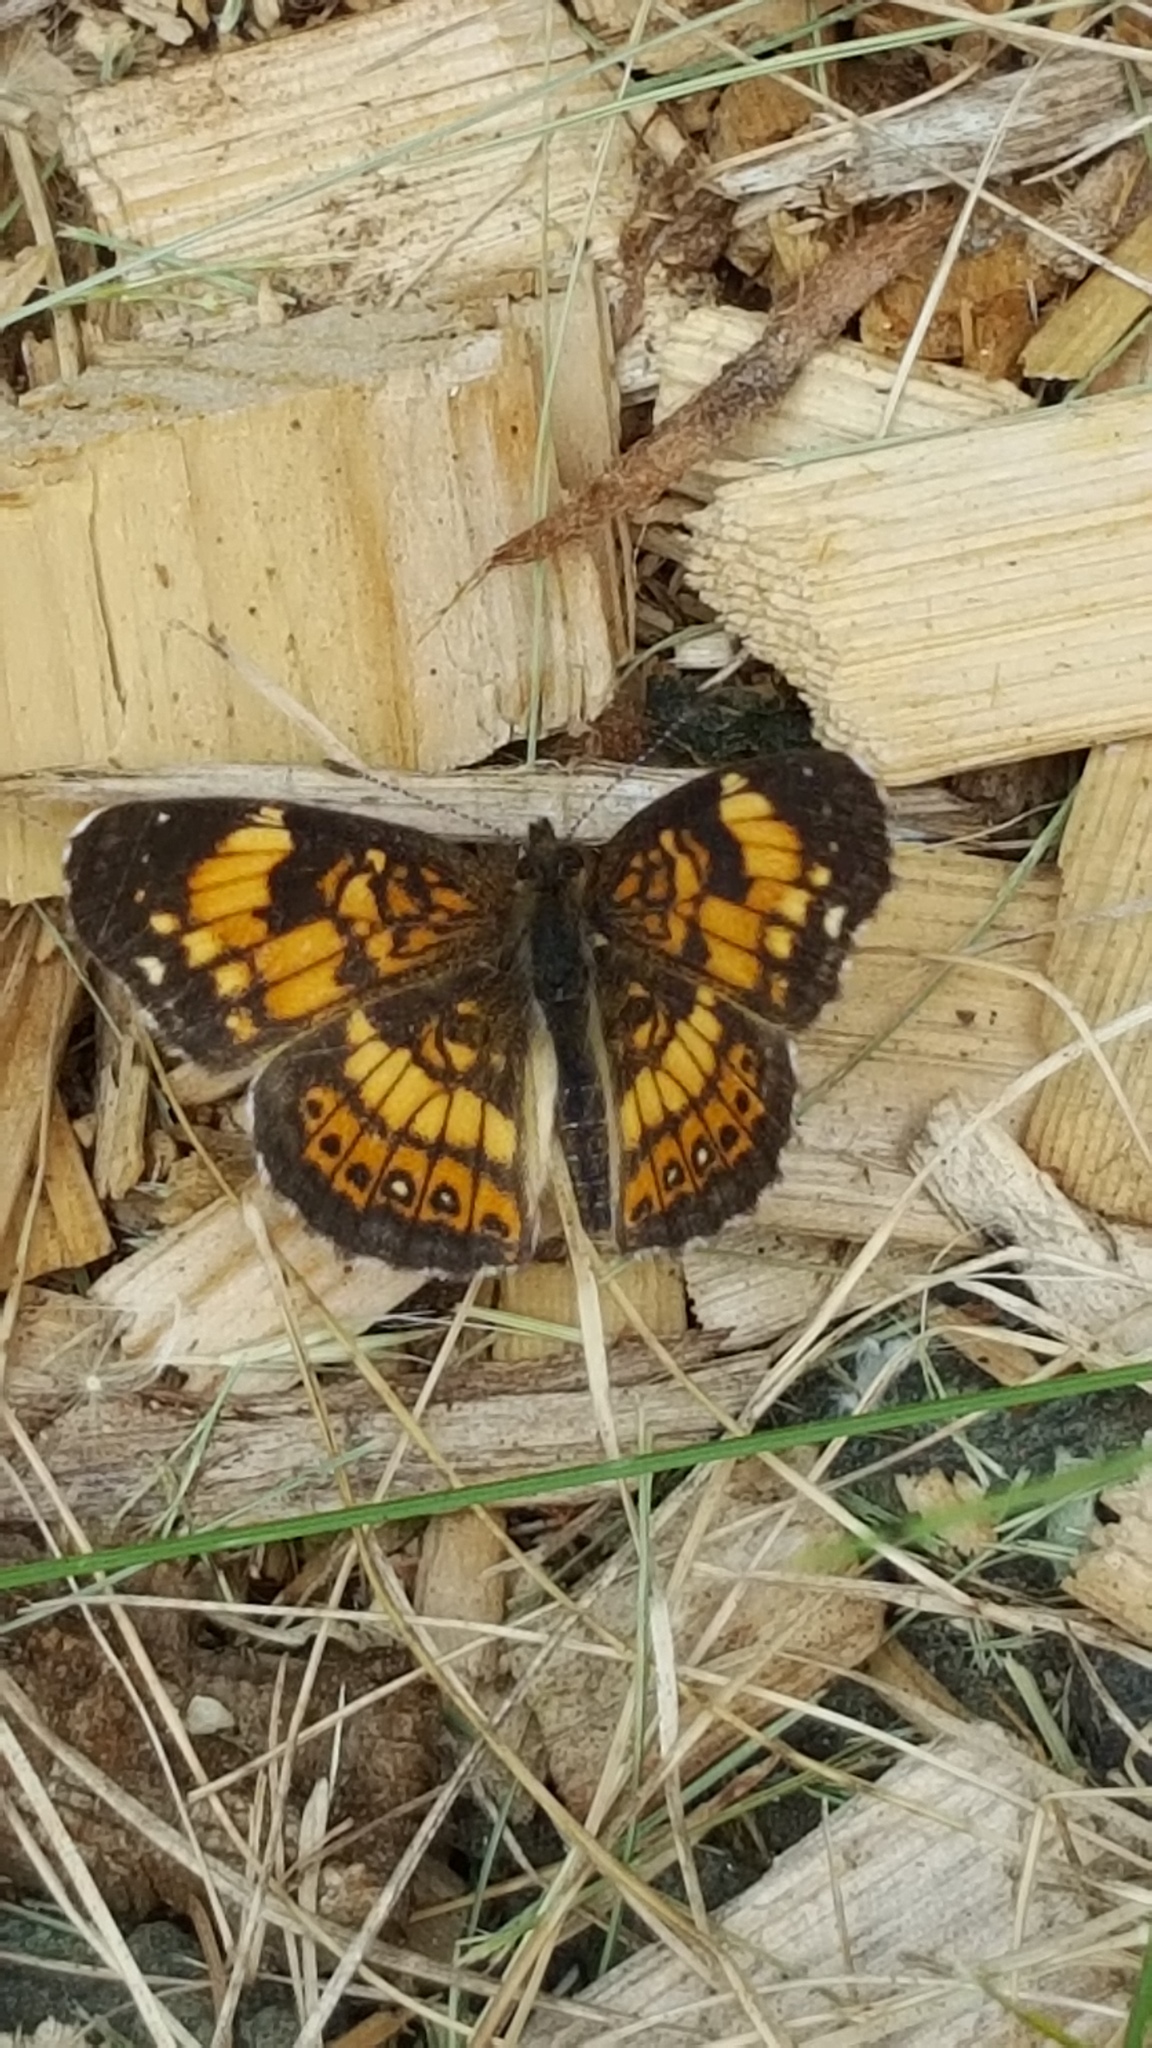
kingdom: Animalia
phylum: Arthropoda
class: Insecta
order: Lepidoptera
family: Nymphalidae
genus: Chlosyne
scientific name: Chlosyne nycteis
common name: Silvery checkerspot
